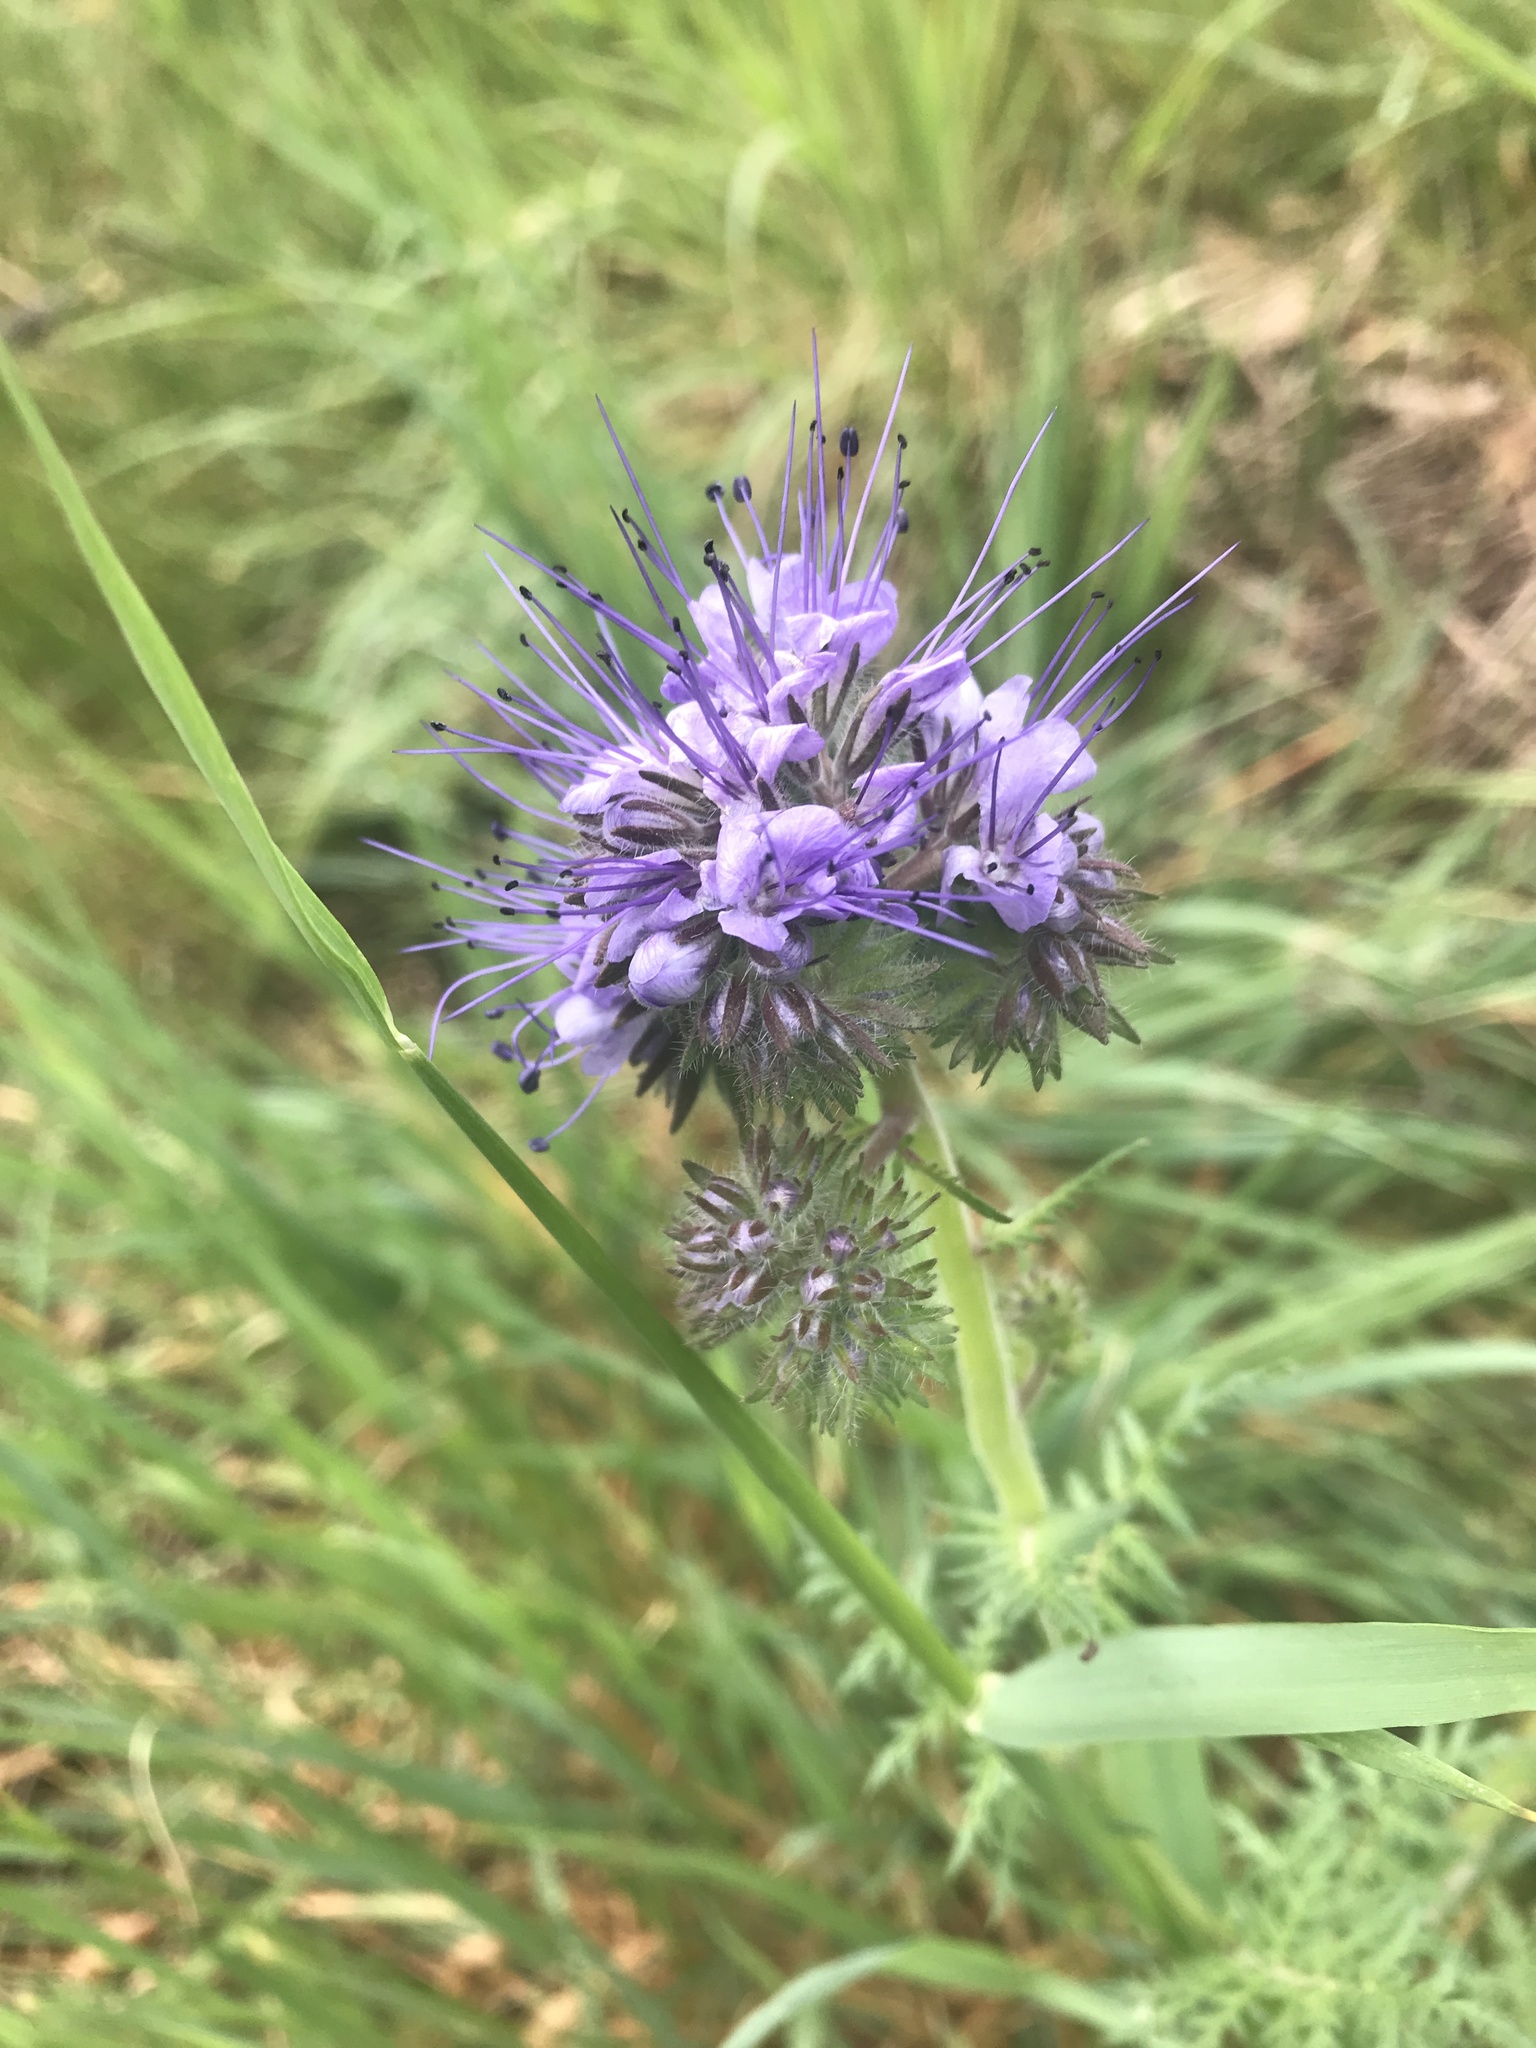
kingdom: Plantae
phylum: Tracheophyta
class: Magnoliopsida
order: Boraginales
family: Hydrophyllaceae
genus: Phacelia
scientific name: Phacelia tanacetifolia
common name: Phacelia
